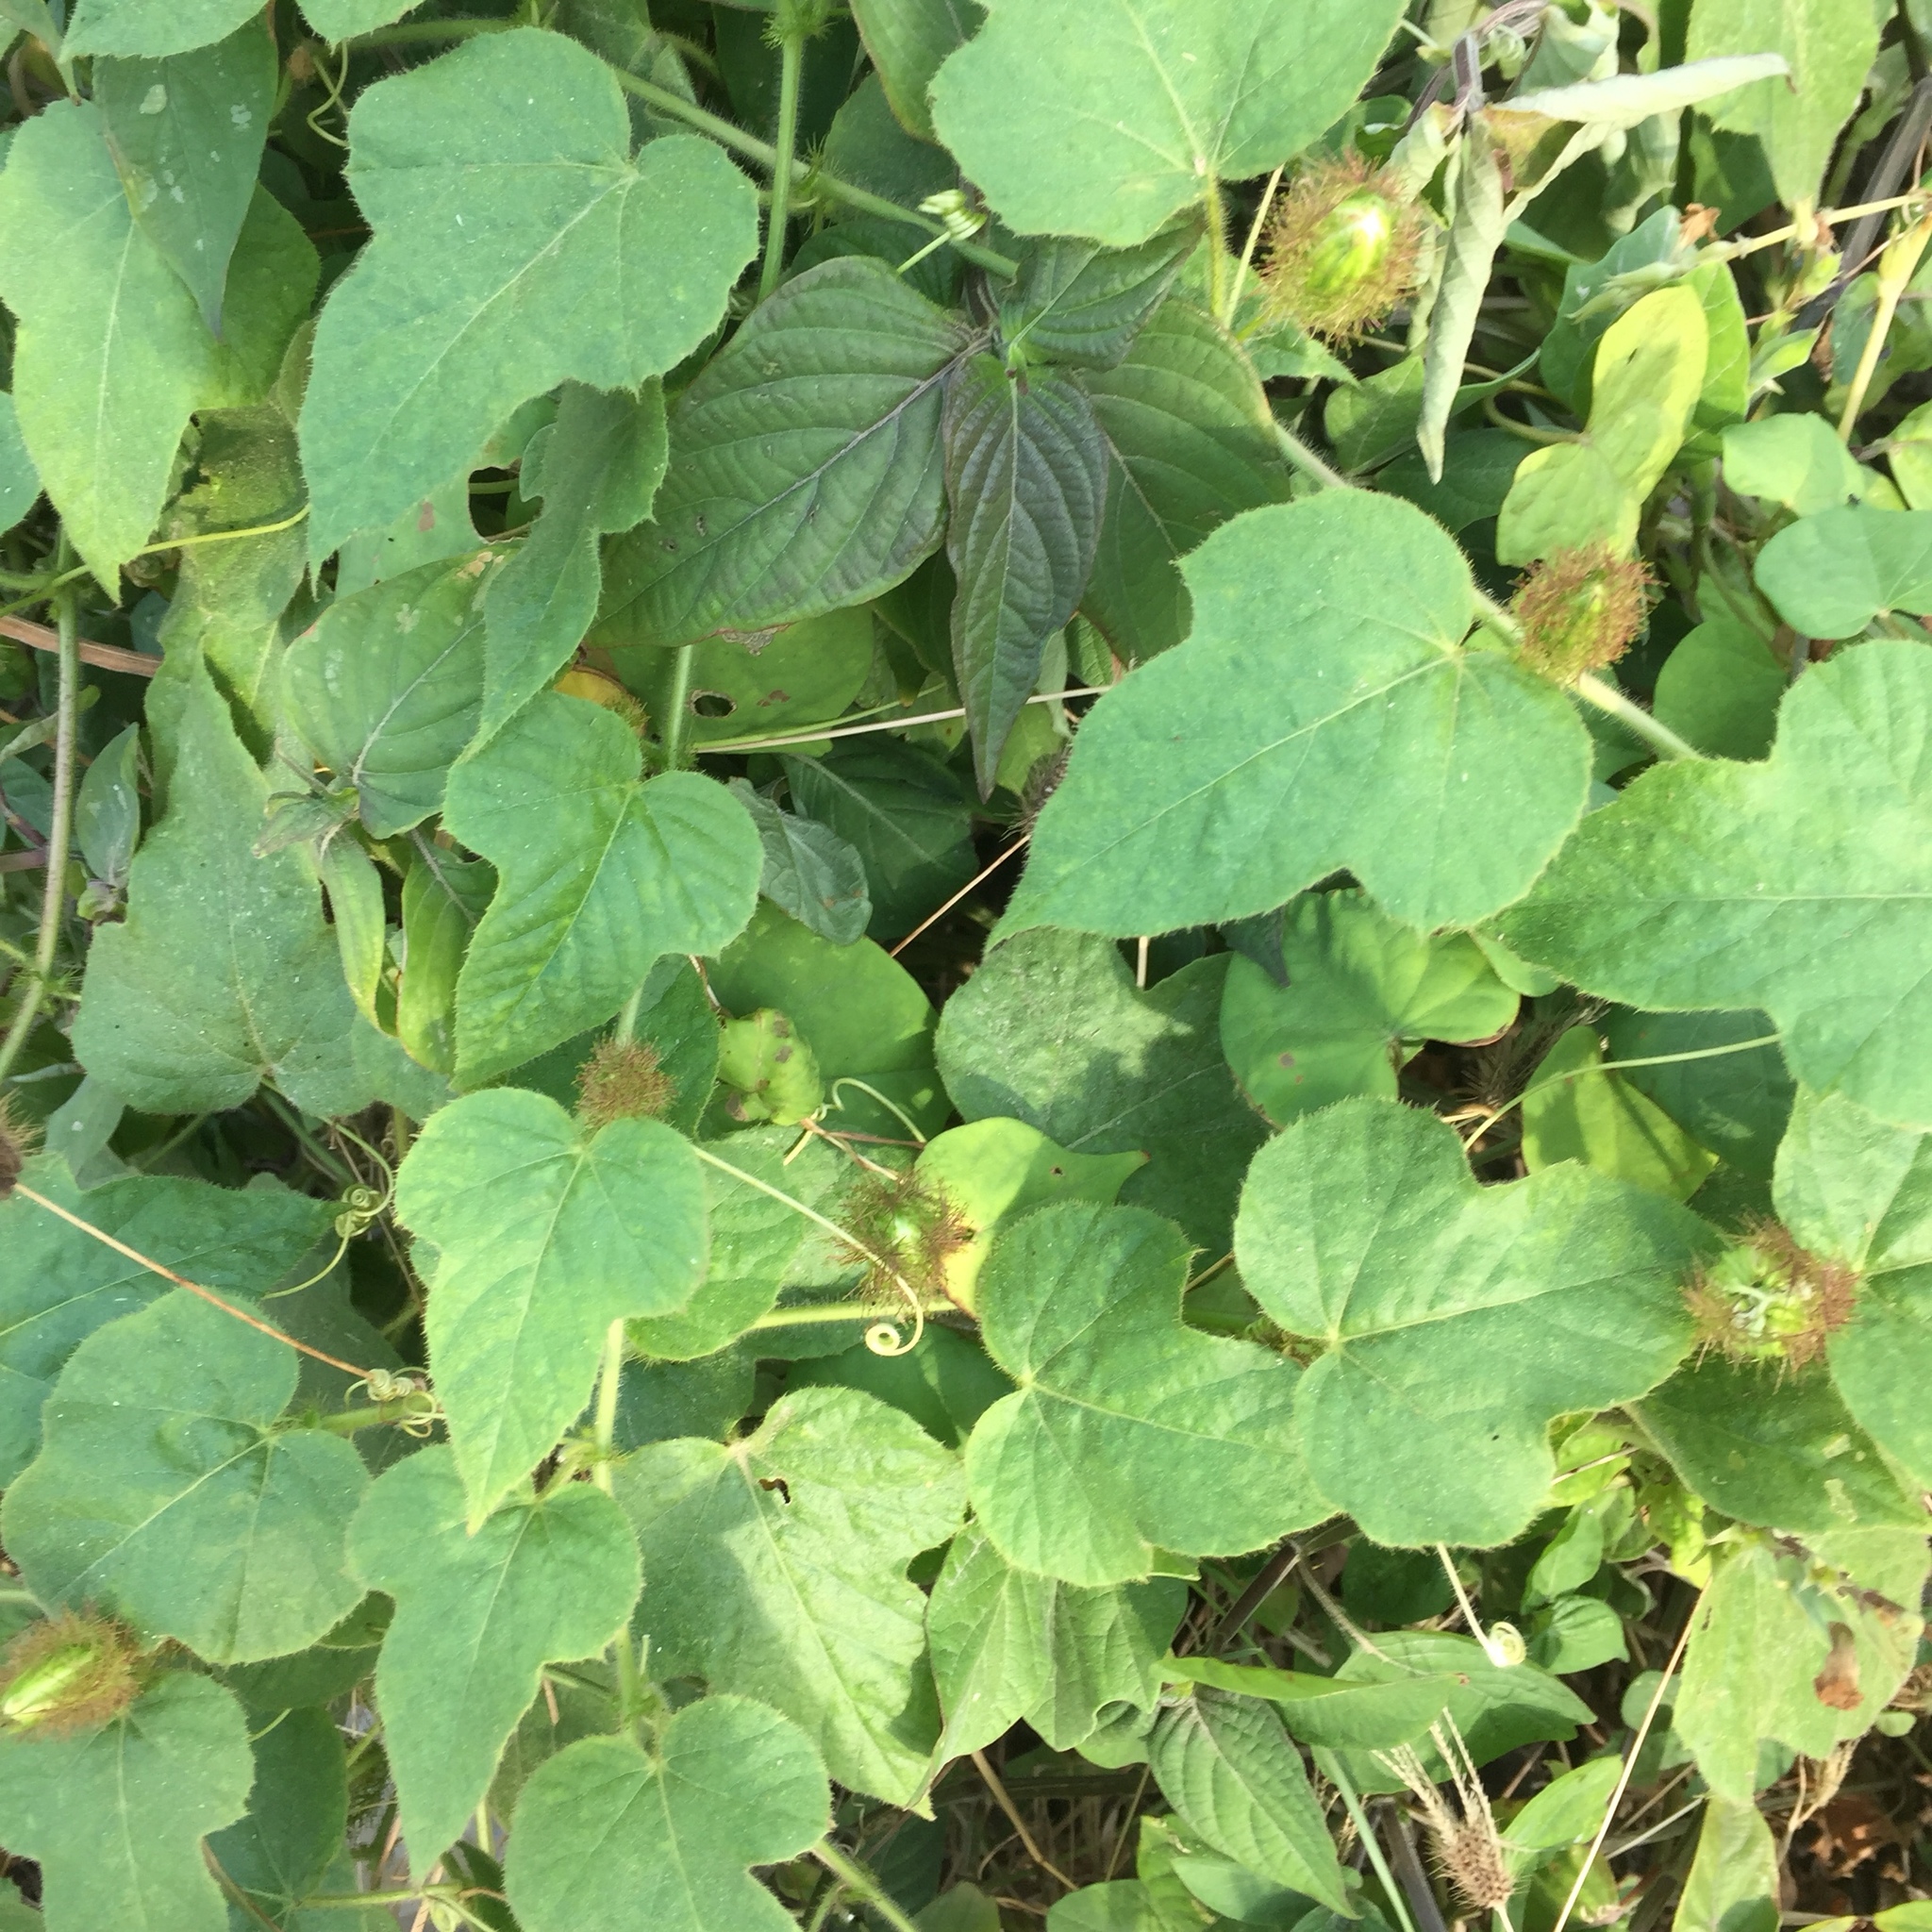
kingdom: Plantae
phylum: Tracheophyta
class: Magnoliopsida
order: Malpighiales
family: Passifloraceae
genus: Passiflora
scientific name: Passiflora foetida
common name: Fetid passionflower
